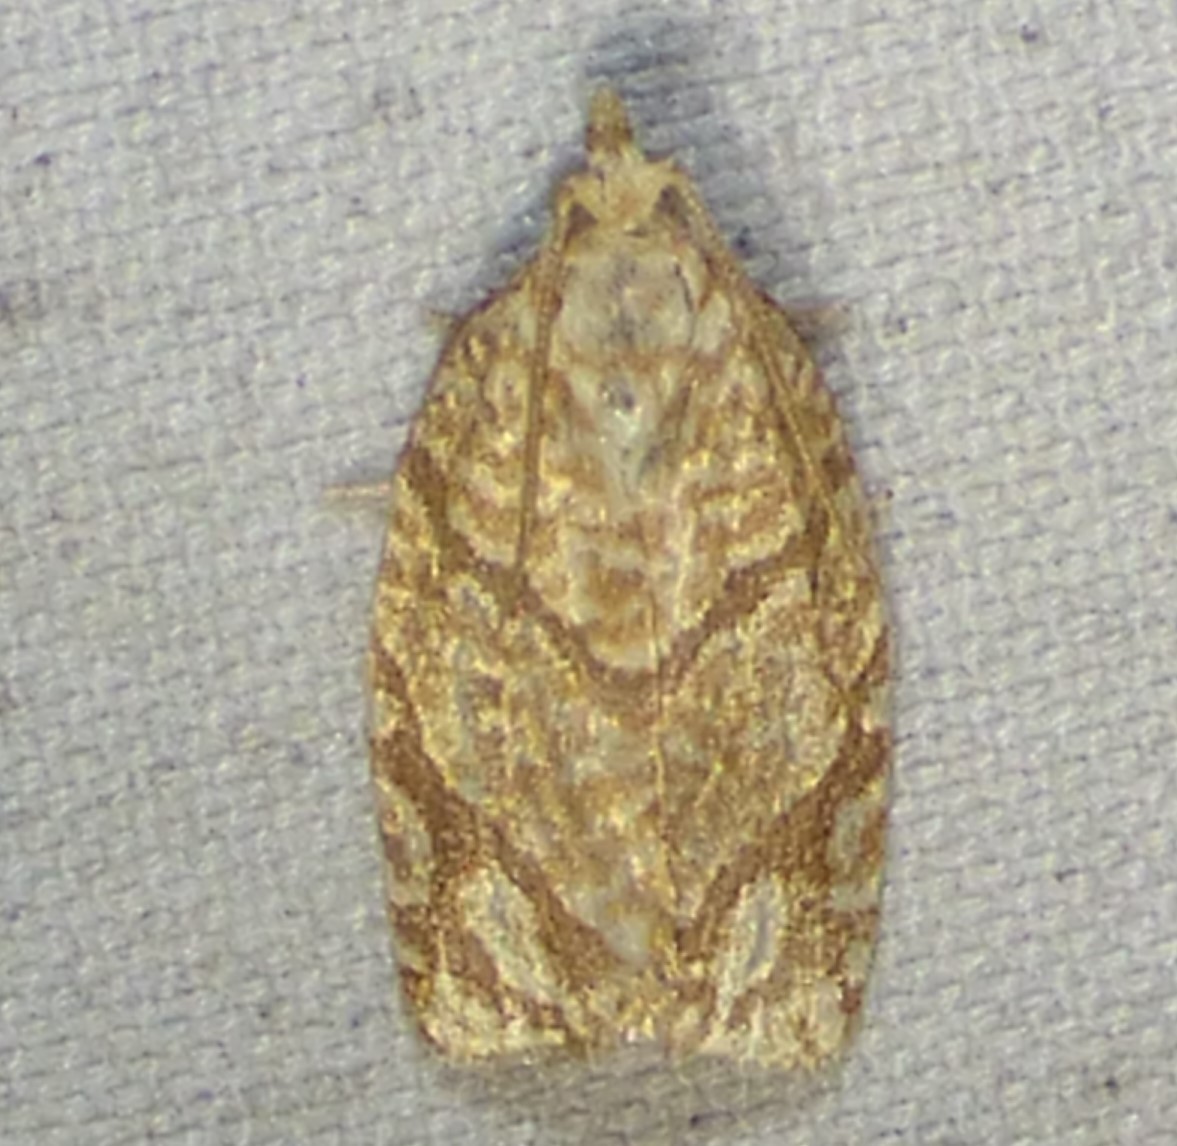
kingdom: Animalia
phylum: Arthropoda
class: Insecta
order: Lepidoptera
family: Tortricidae
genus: Argyrotaenia
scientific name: Argyrotaenia quercifoliana
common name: Yellow-winged oak leafroller moth
